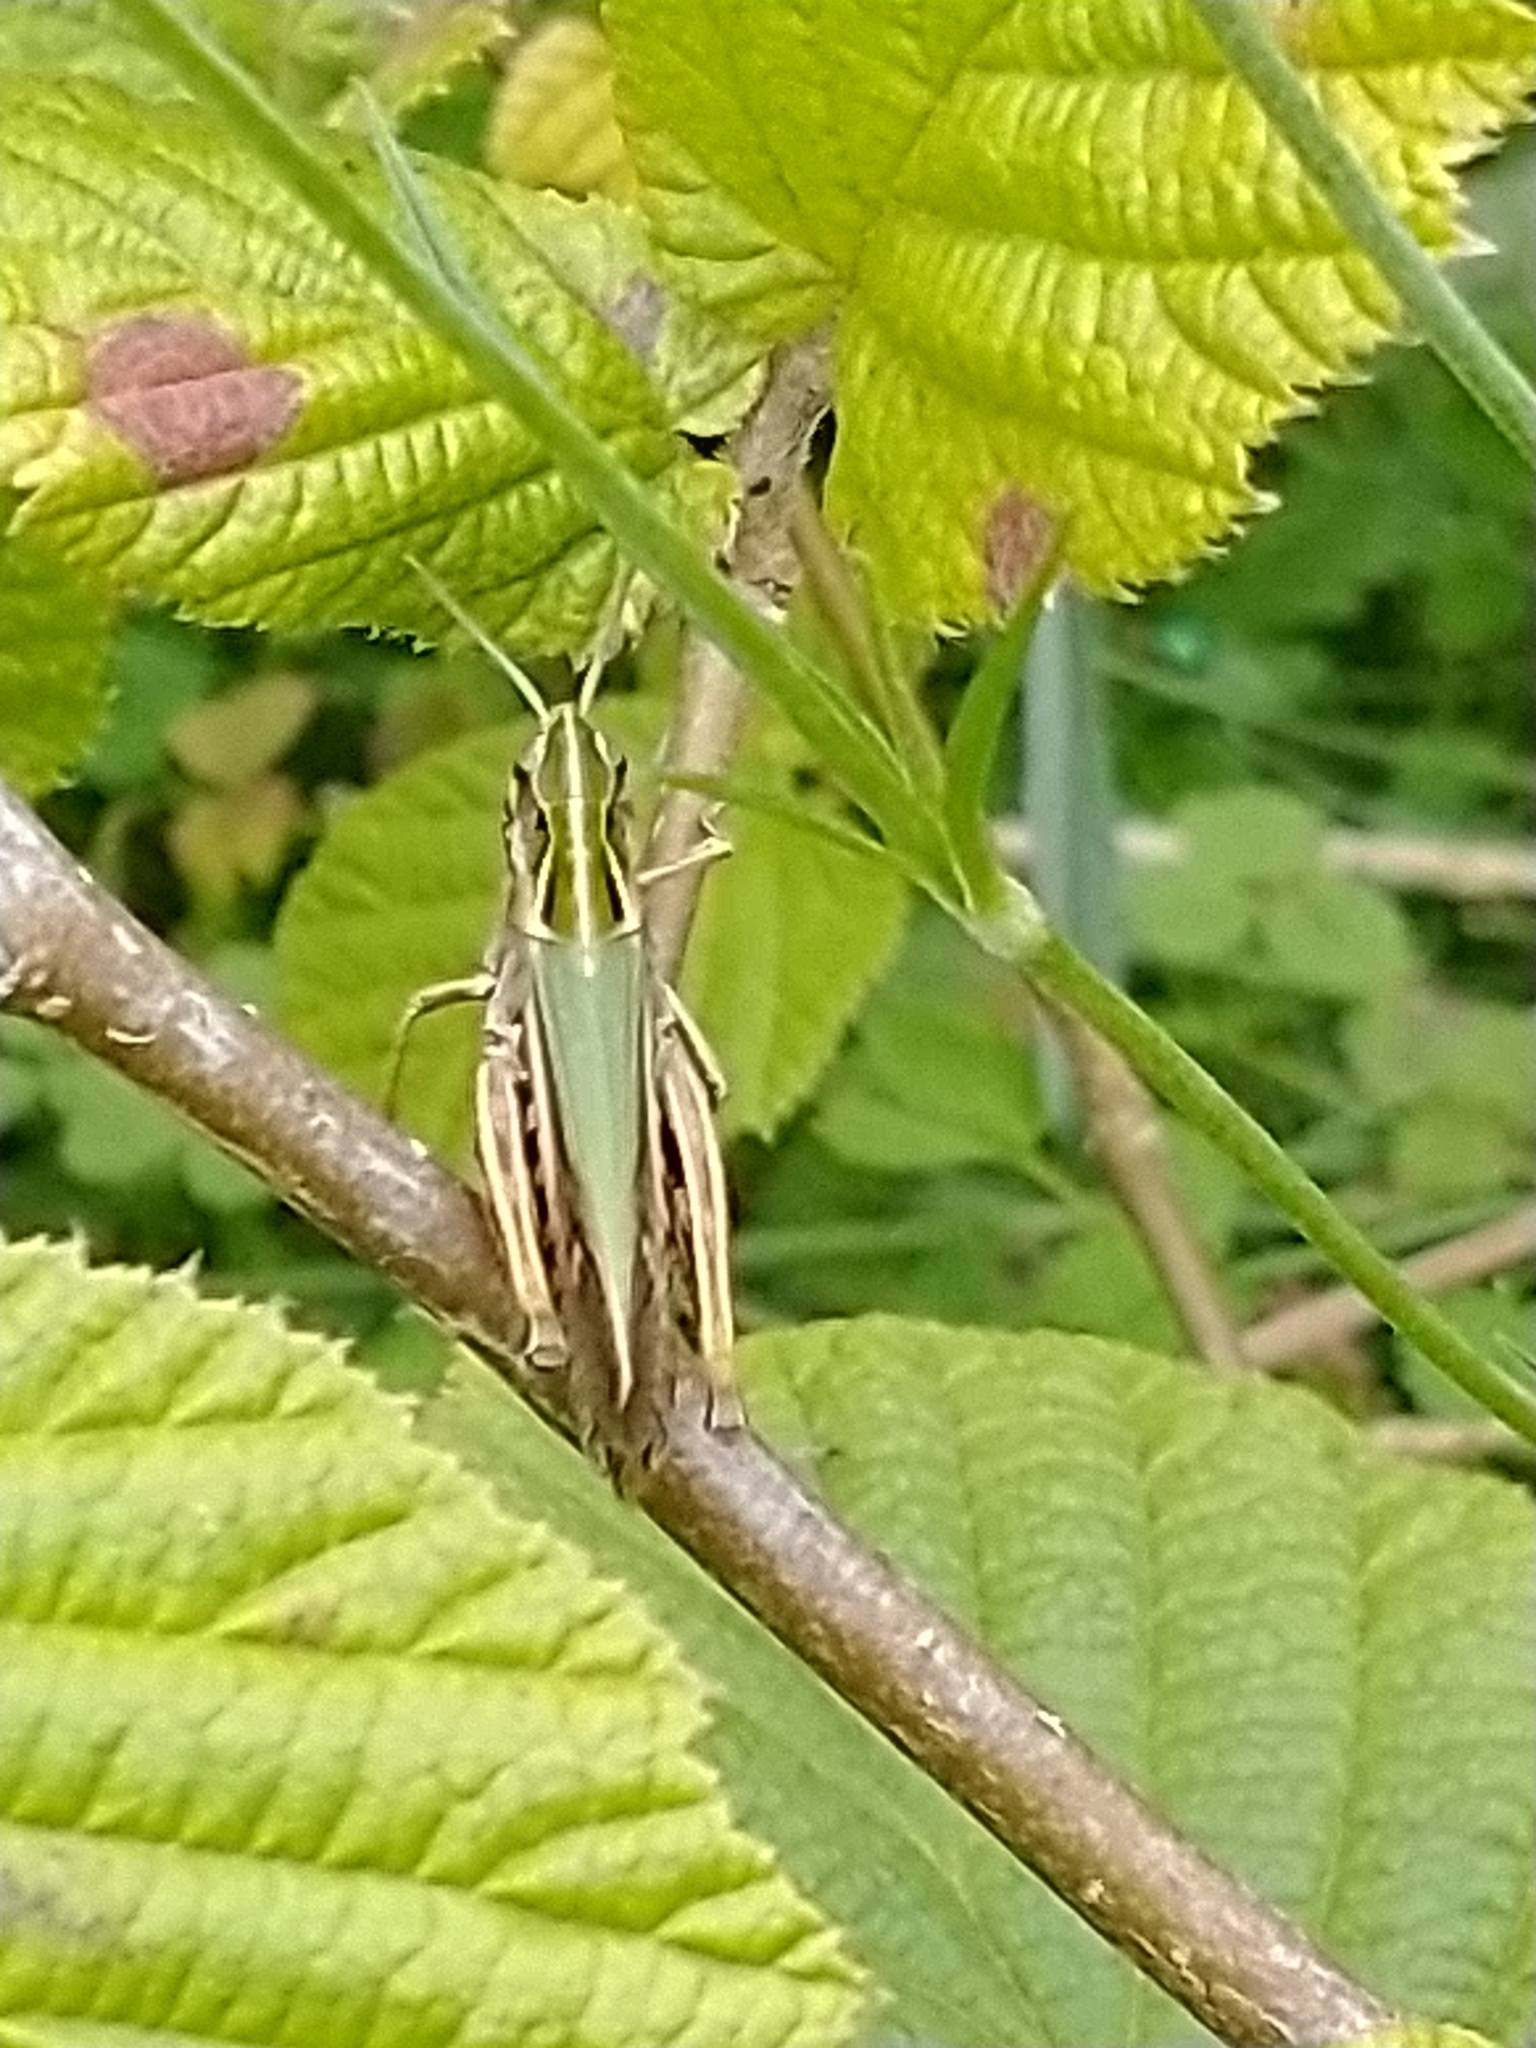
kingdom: Animalia
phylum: Arthropoda
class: Insecta
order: Orthoptera
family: Acrididae
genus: Omocestus
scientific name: Omocestus viridulus
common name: Common green grasshopper
